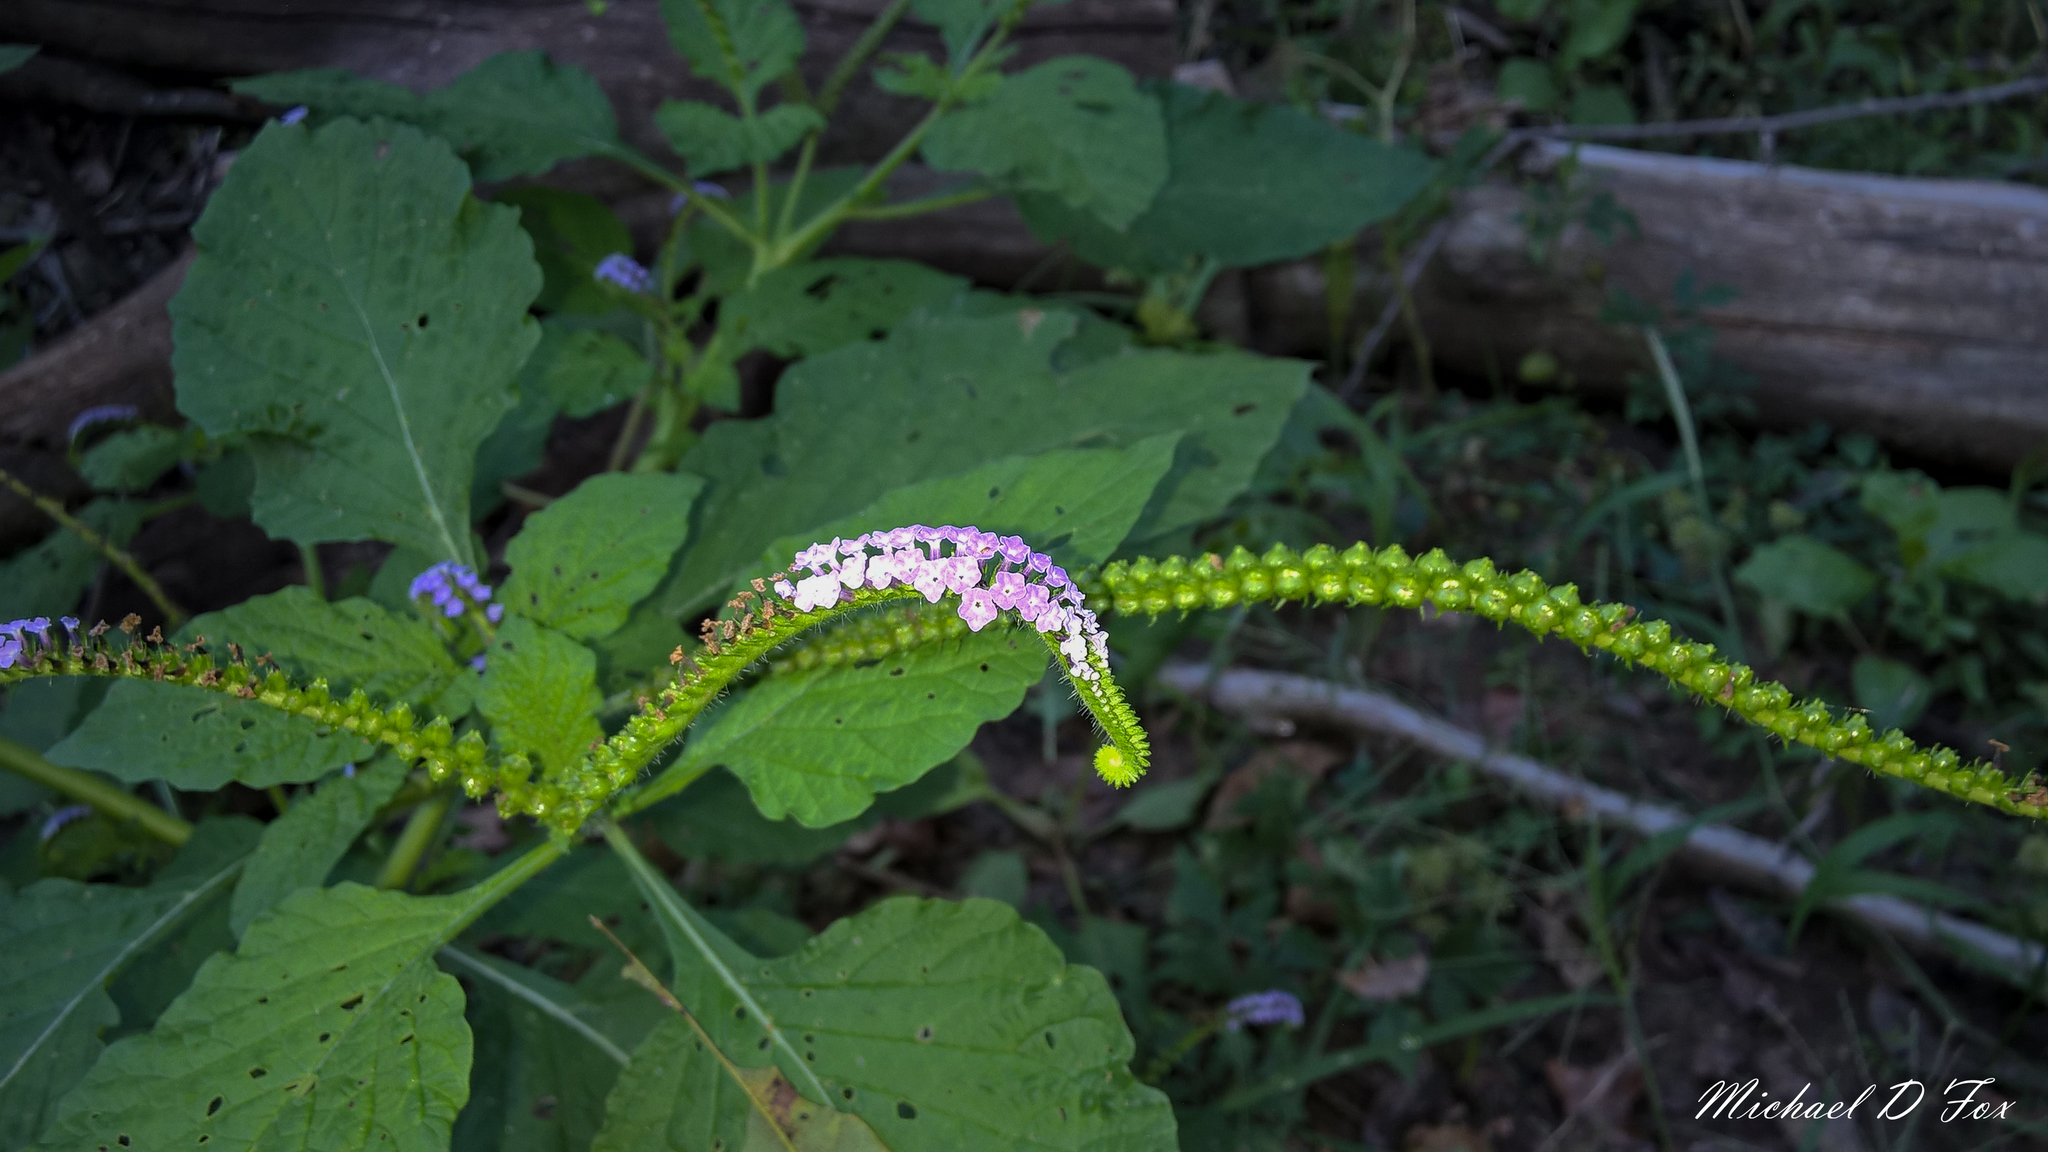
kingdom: Plantae
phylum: Tracheophyta
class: Magnoliopsida
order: Boraginales
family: Heliotropiaceae
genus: Heliotropium
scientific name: Heliotropium indicum
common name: Indian heliotrope
